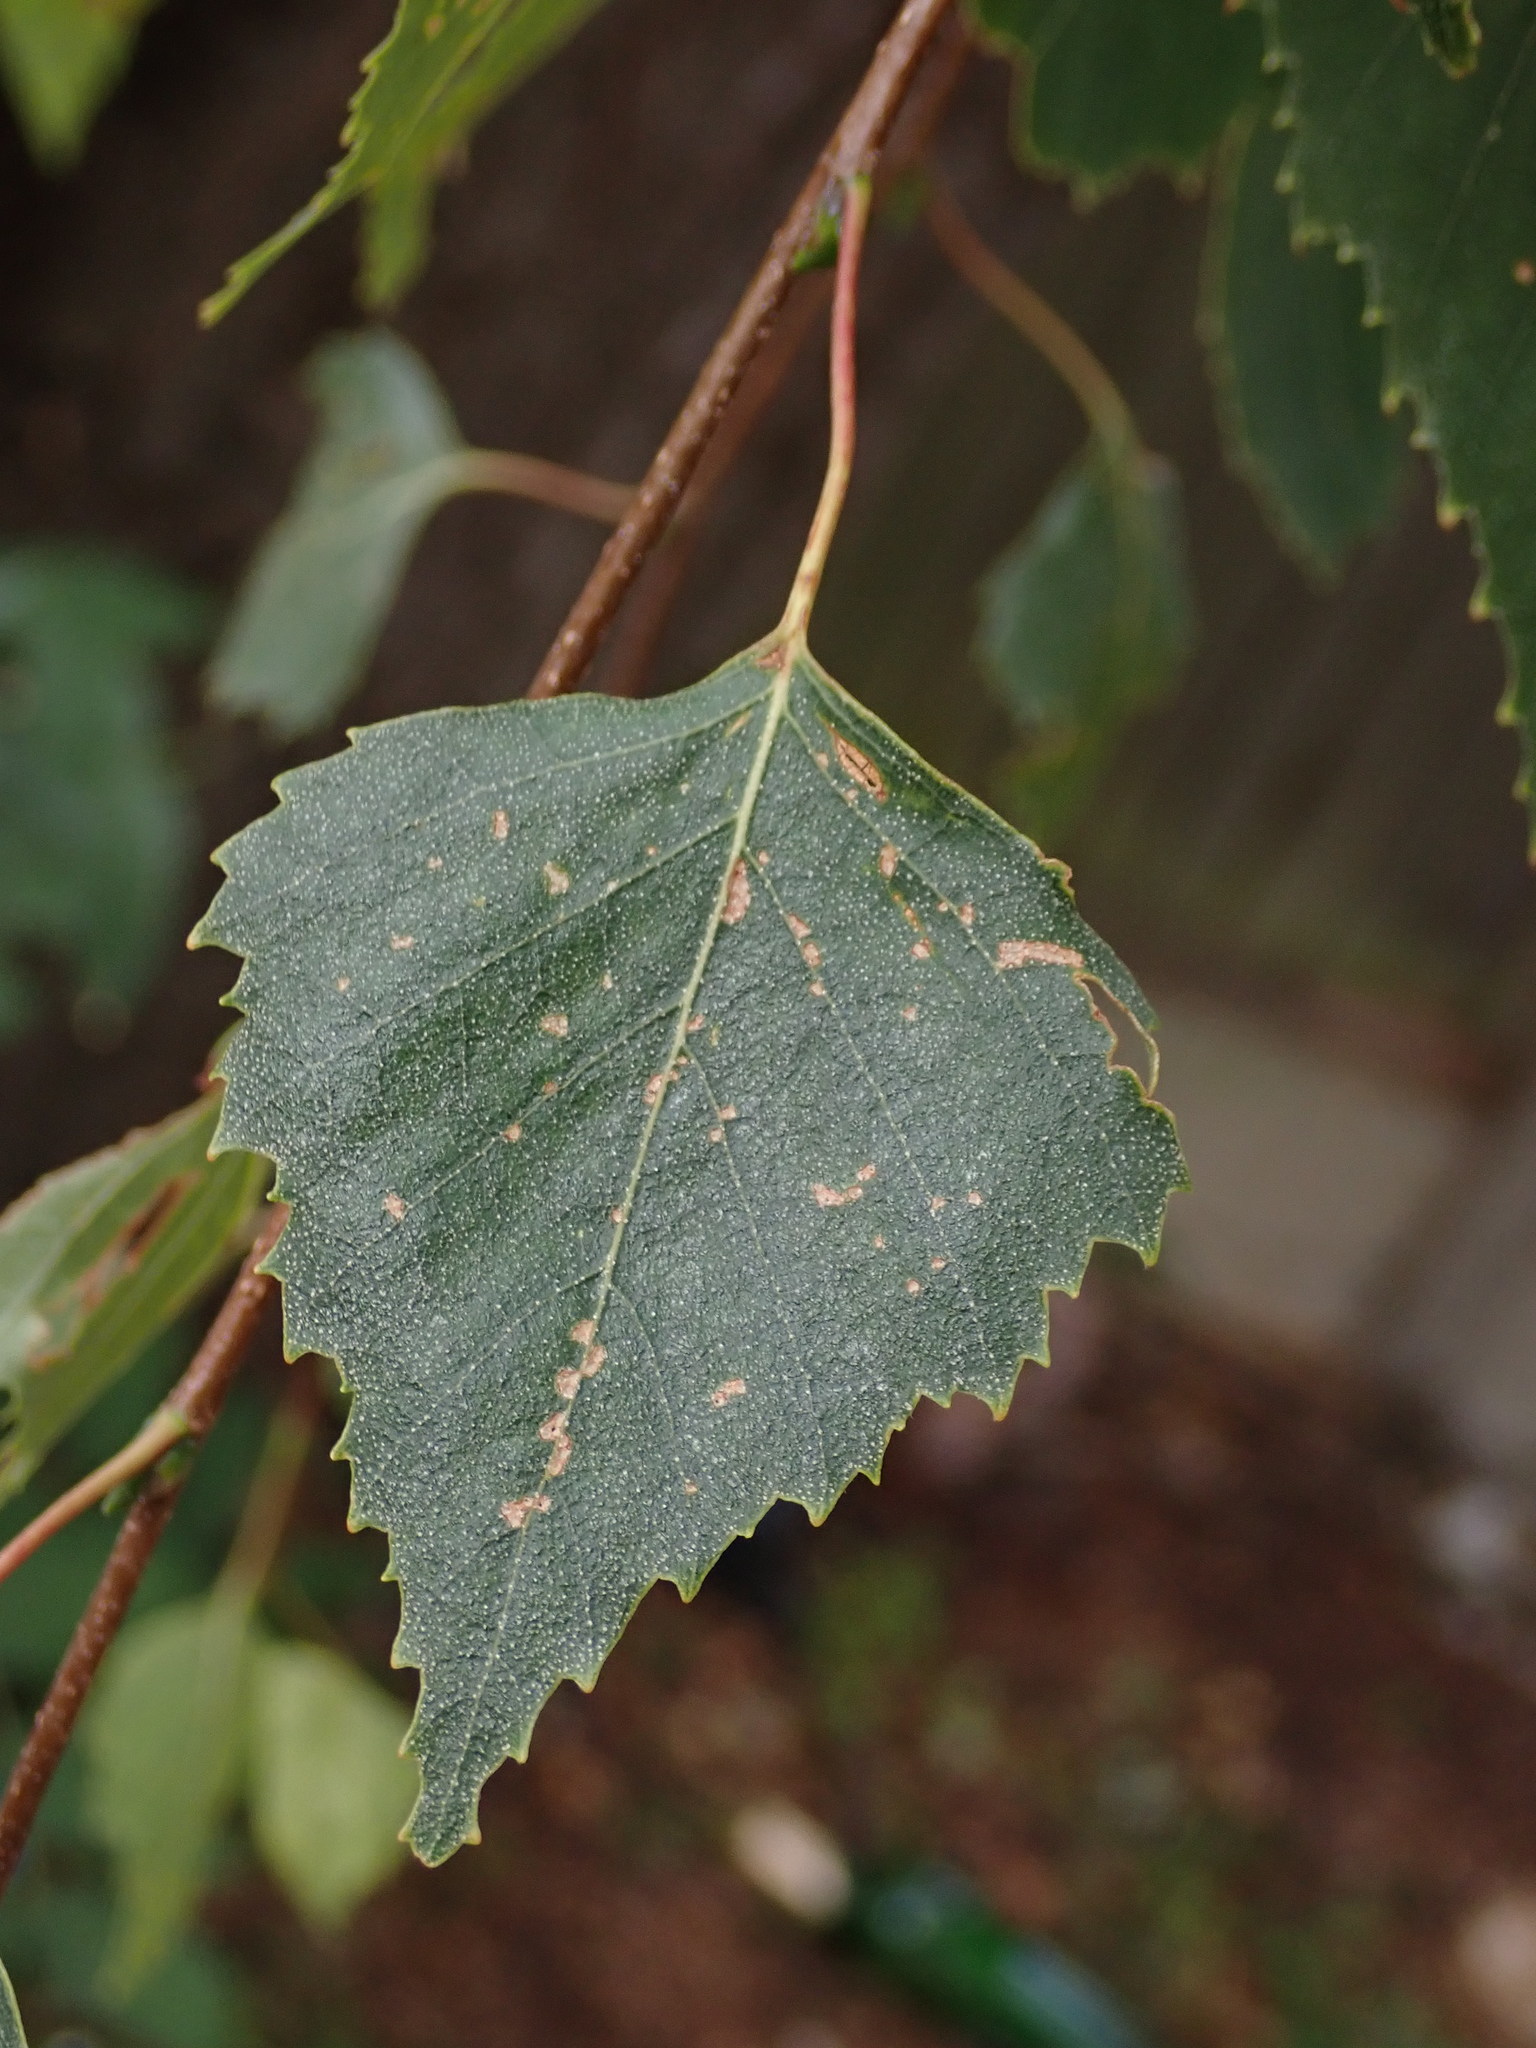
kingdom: Plantae
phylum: Tracheophyta
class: Magnoliopsida
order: Fagales
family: Betulaceae
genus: Betula
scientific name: Betula pendula
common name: Silver birch
